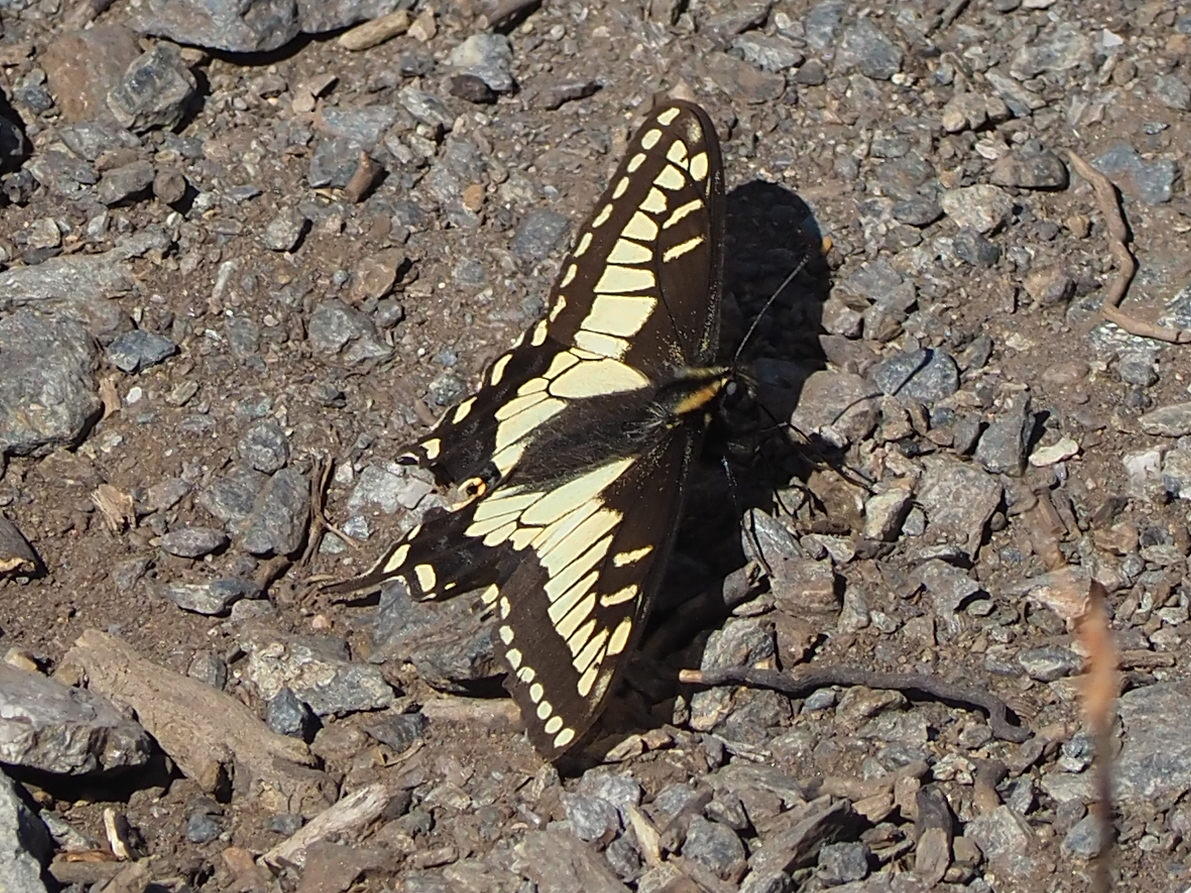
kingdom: Animalia
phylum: Arthropoda
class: Insecta
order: Lepidoptera
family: Papilionidae
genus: Papilio
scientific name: Papilio zelicaon
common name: Anise swallowtail
